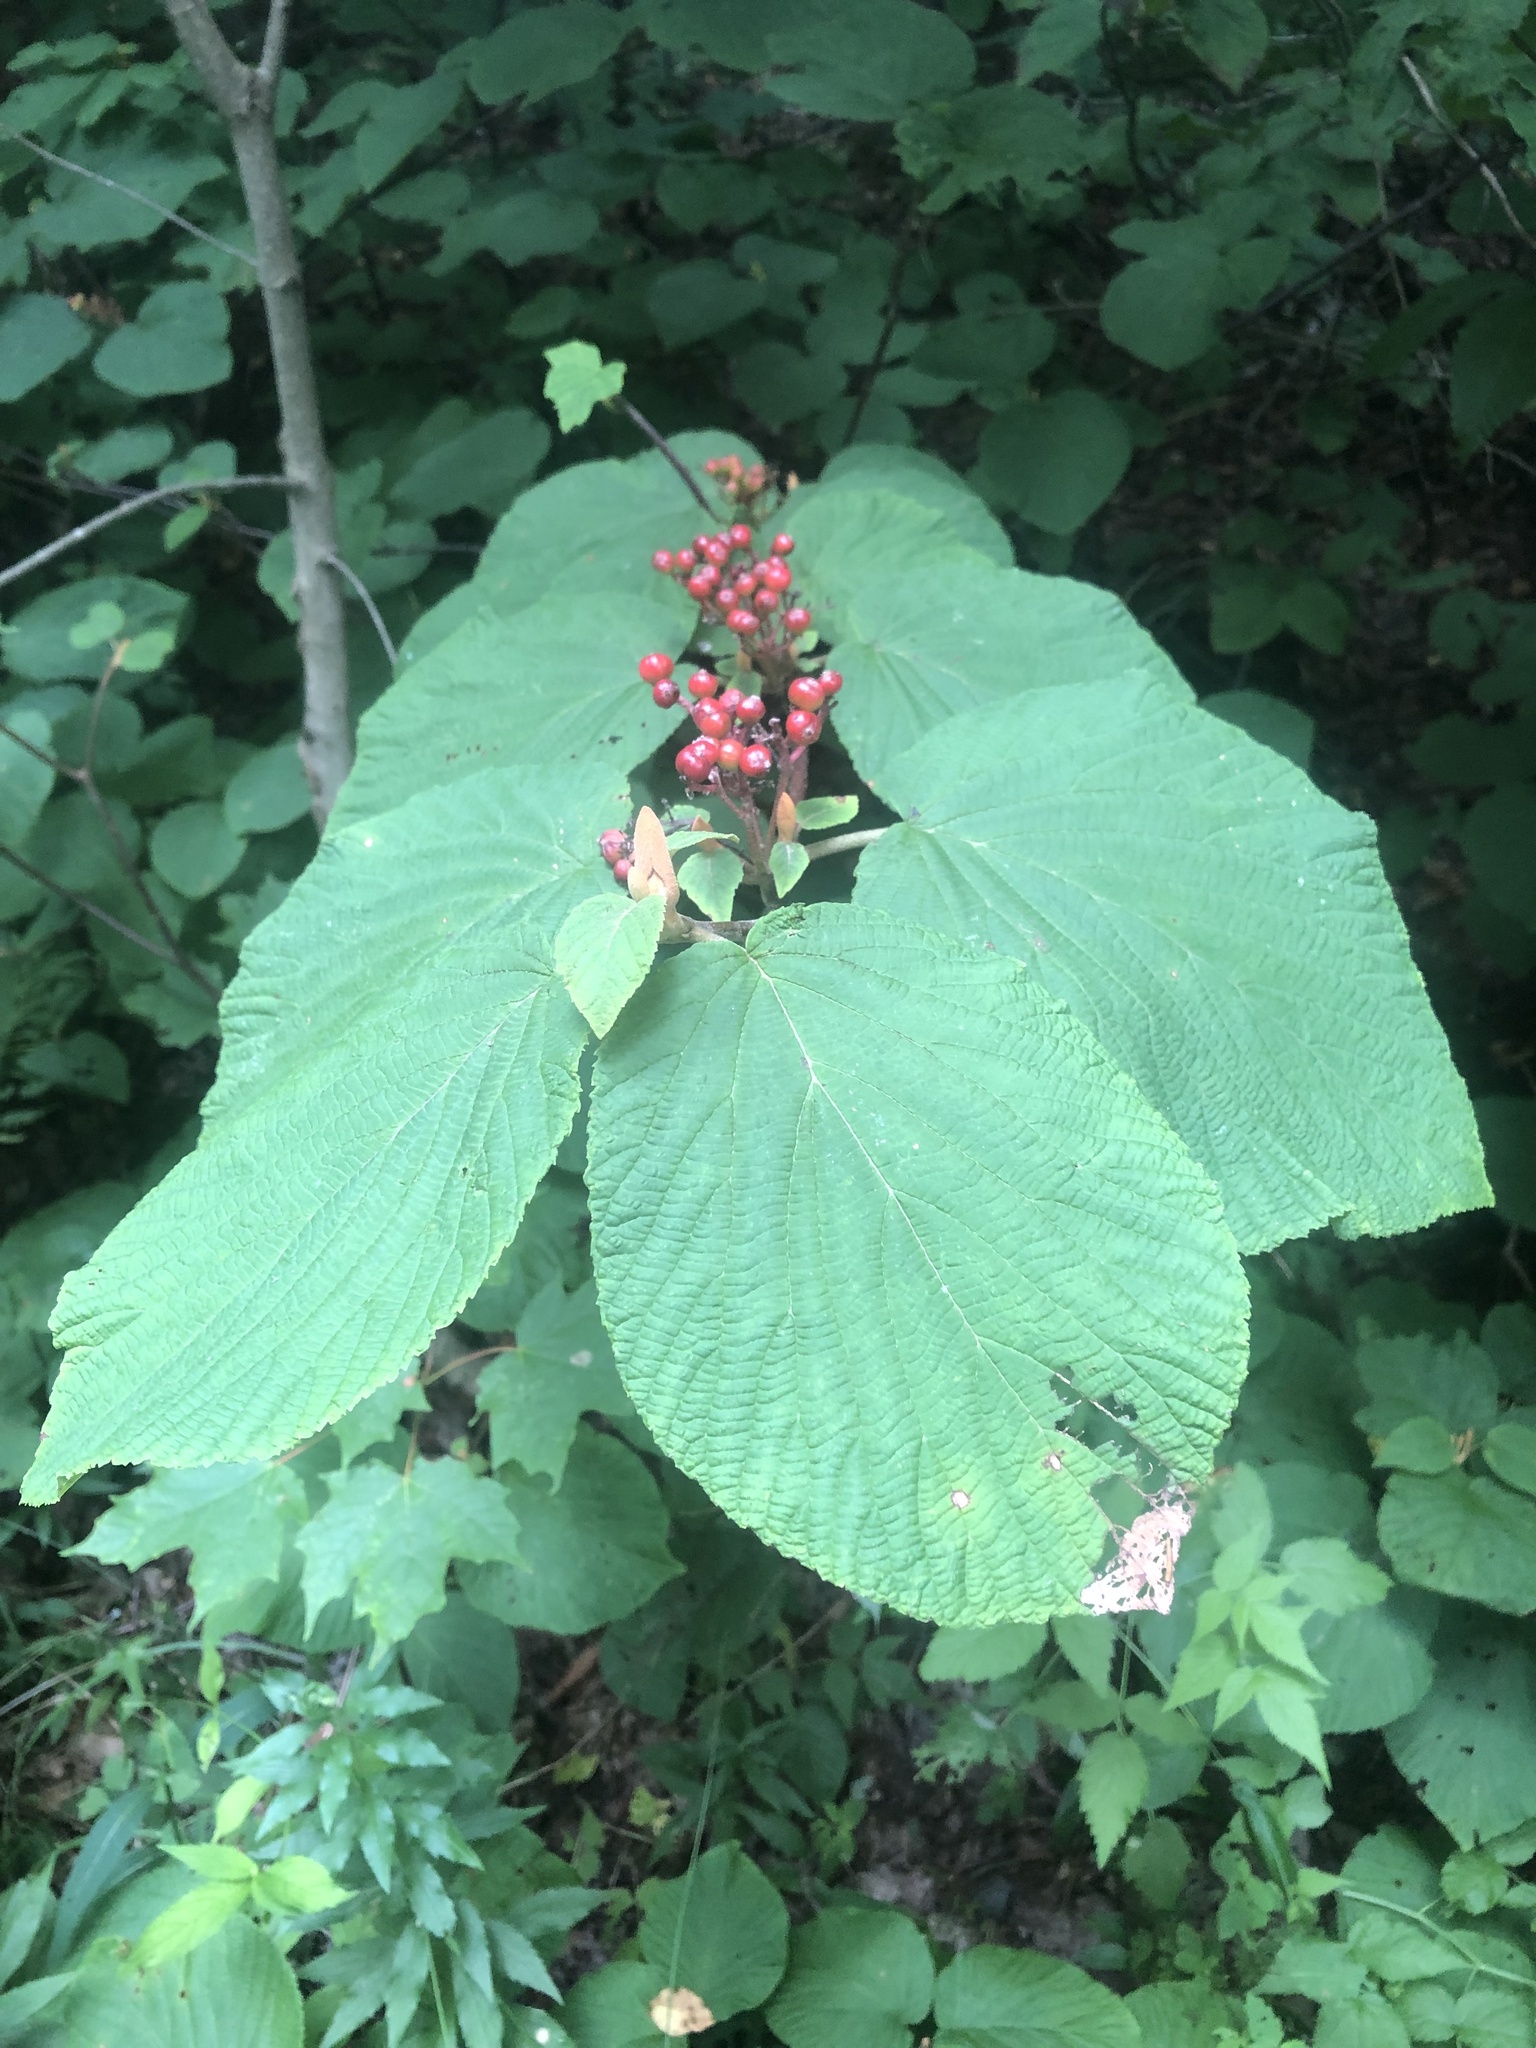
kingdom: Plantae
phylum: Tracheophyta
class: Magnoliopsida
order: Dipsacales
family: Viburnaceae
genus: Viburnum
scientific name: Viburnum lantanoides
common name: Hobblebush
